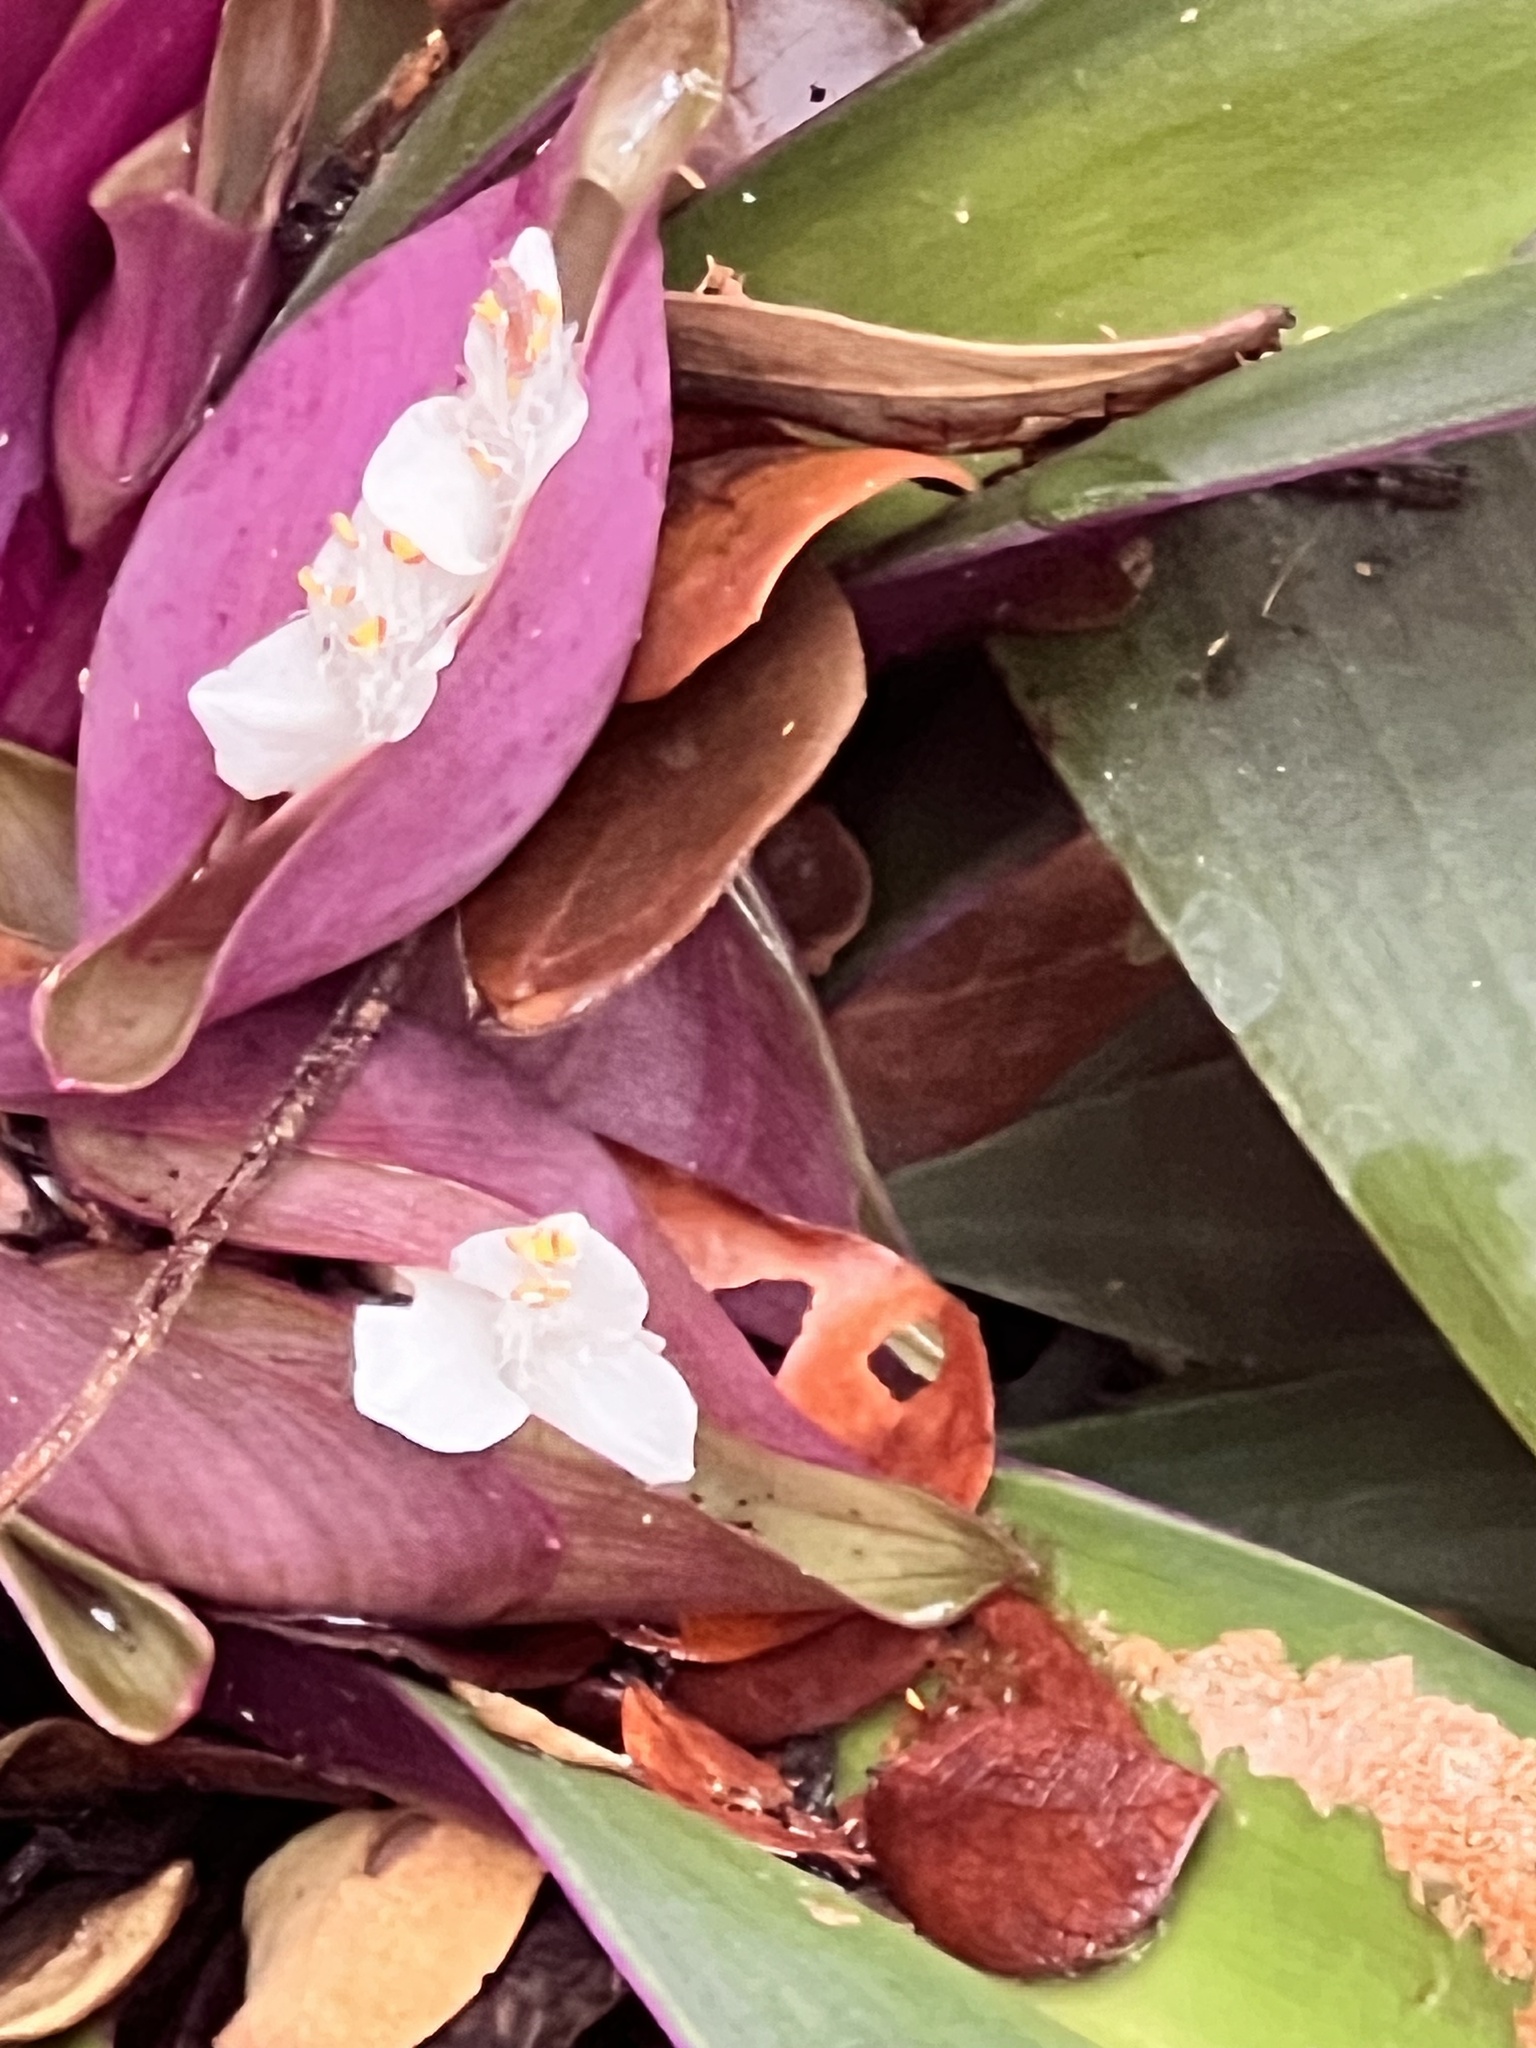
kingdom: Plantae
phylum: Tracheophyta
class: Liliopsida
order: Commelinales
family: Commelinaceae
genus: Tradescantia
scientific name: Tradescantia spathacea
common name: Boatlily
